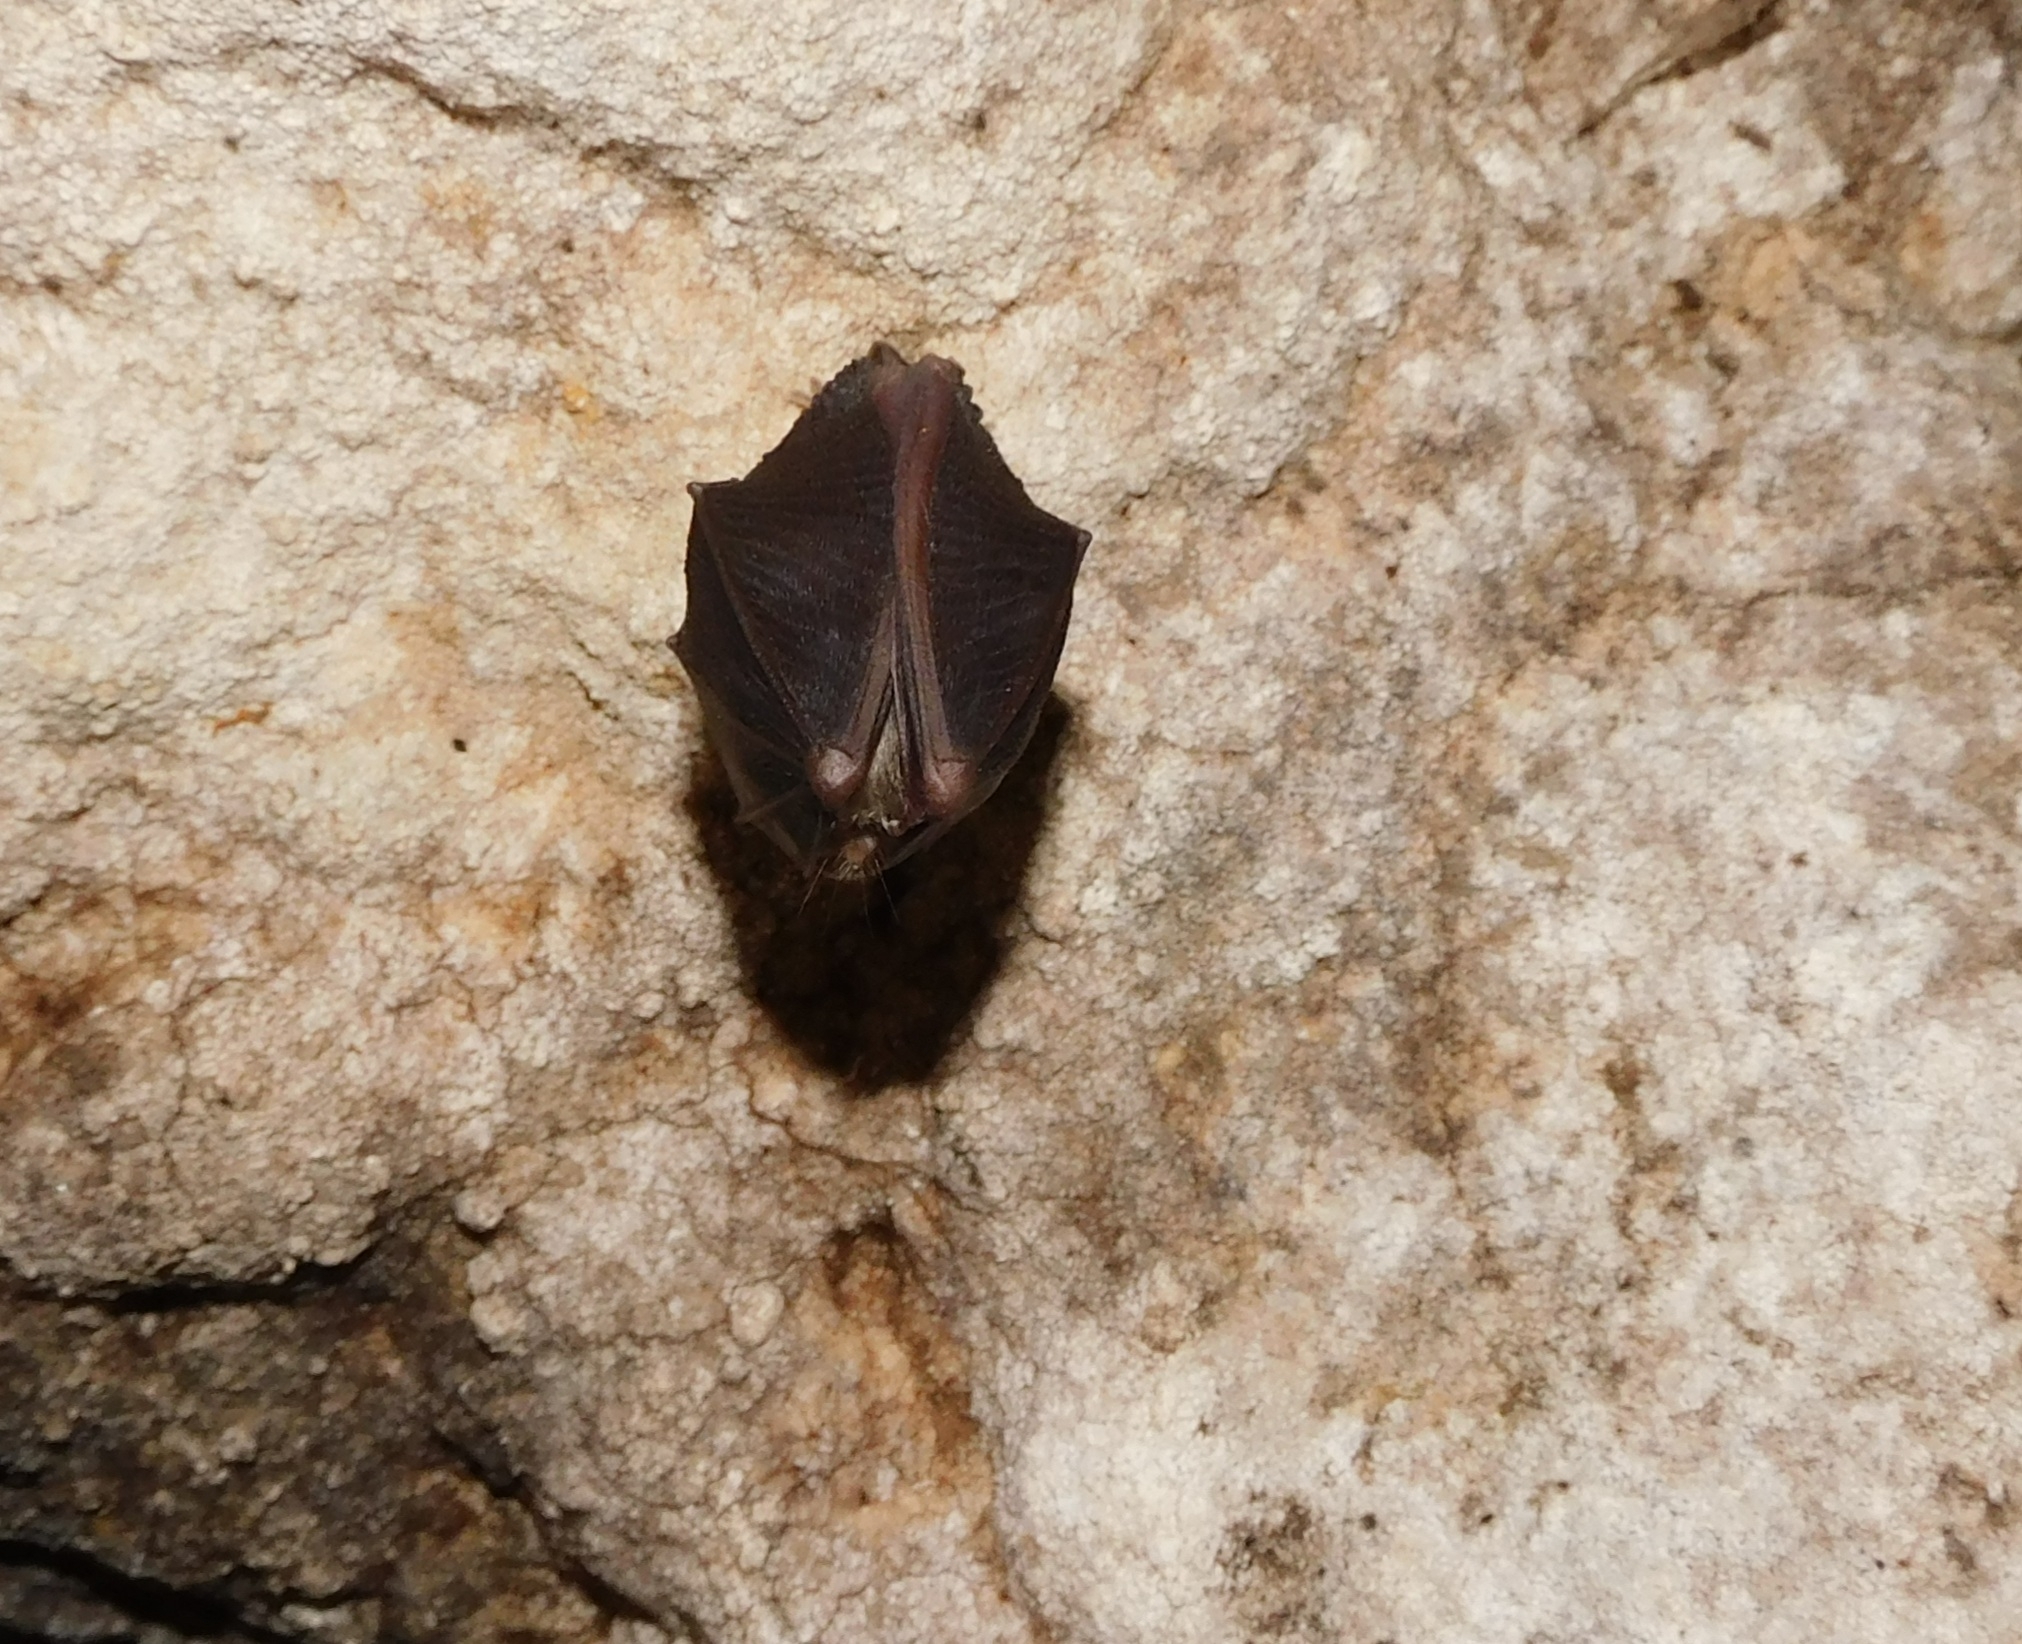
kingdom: Animalia
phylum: Chordata
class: Mammalia
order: Chiroptera
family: Rhinolophidae
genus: Rhinolophus
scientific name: Rhinolophus hipposideros
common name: Lesser horseshoe bat
